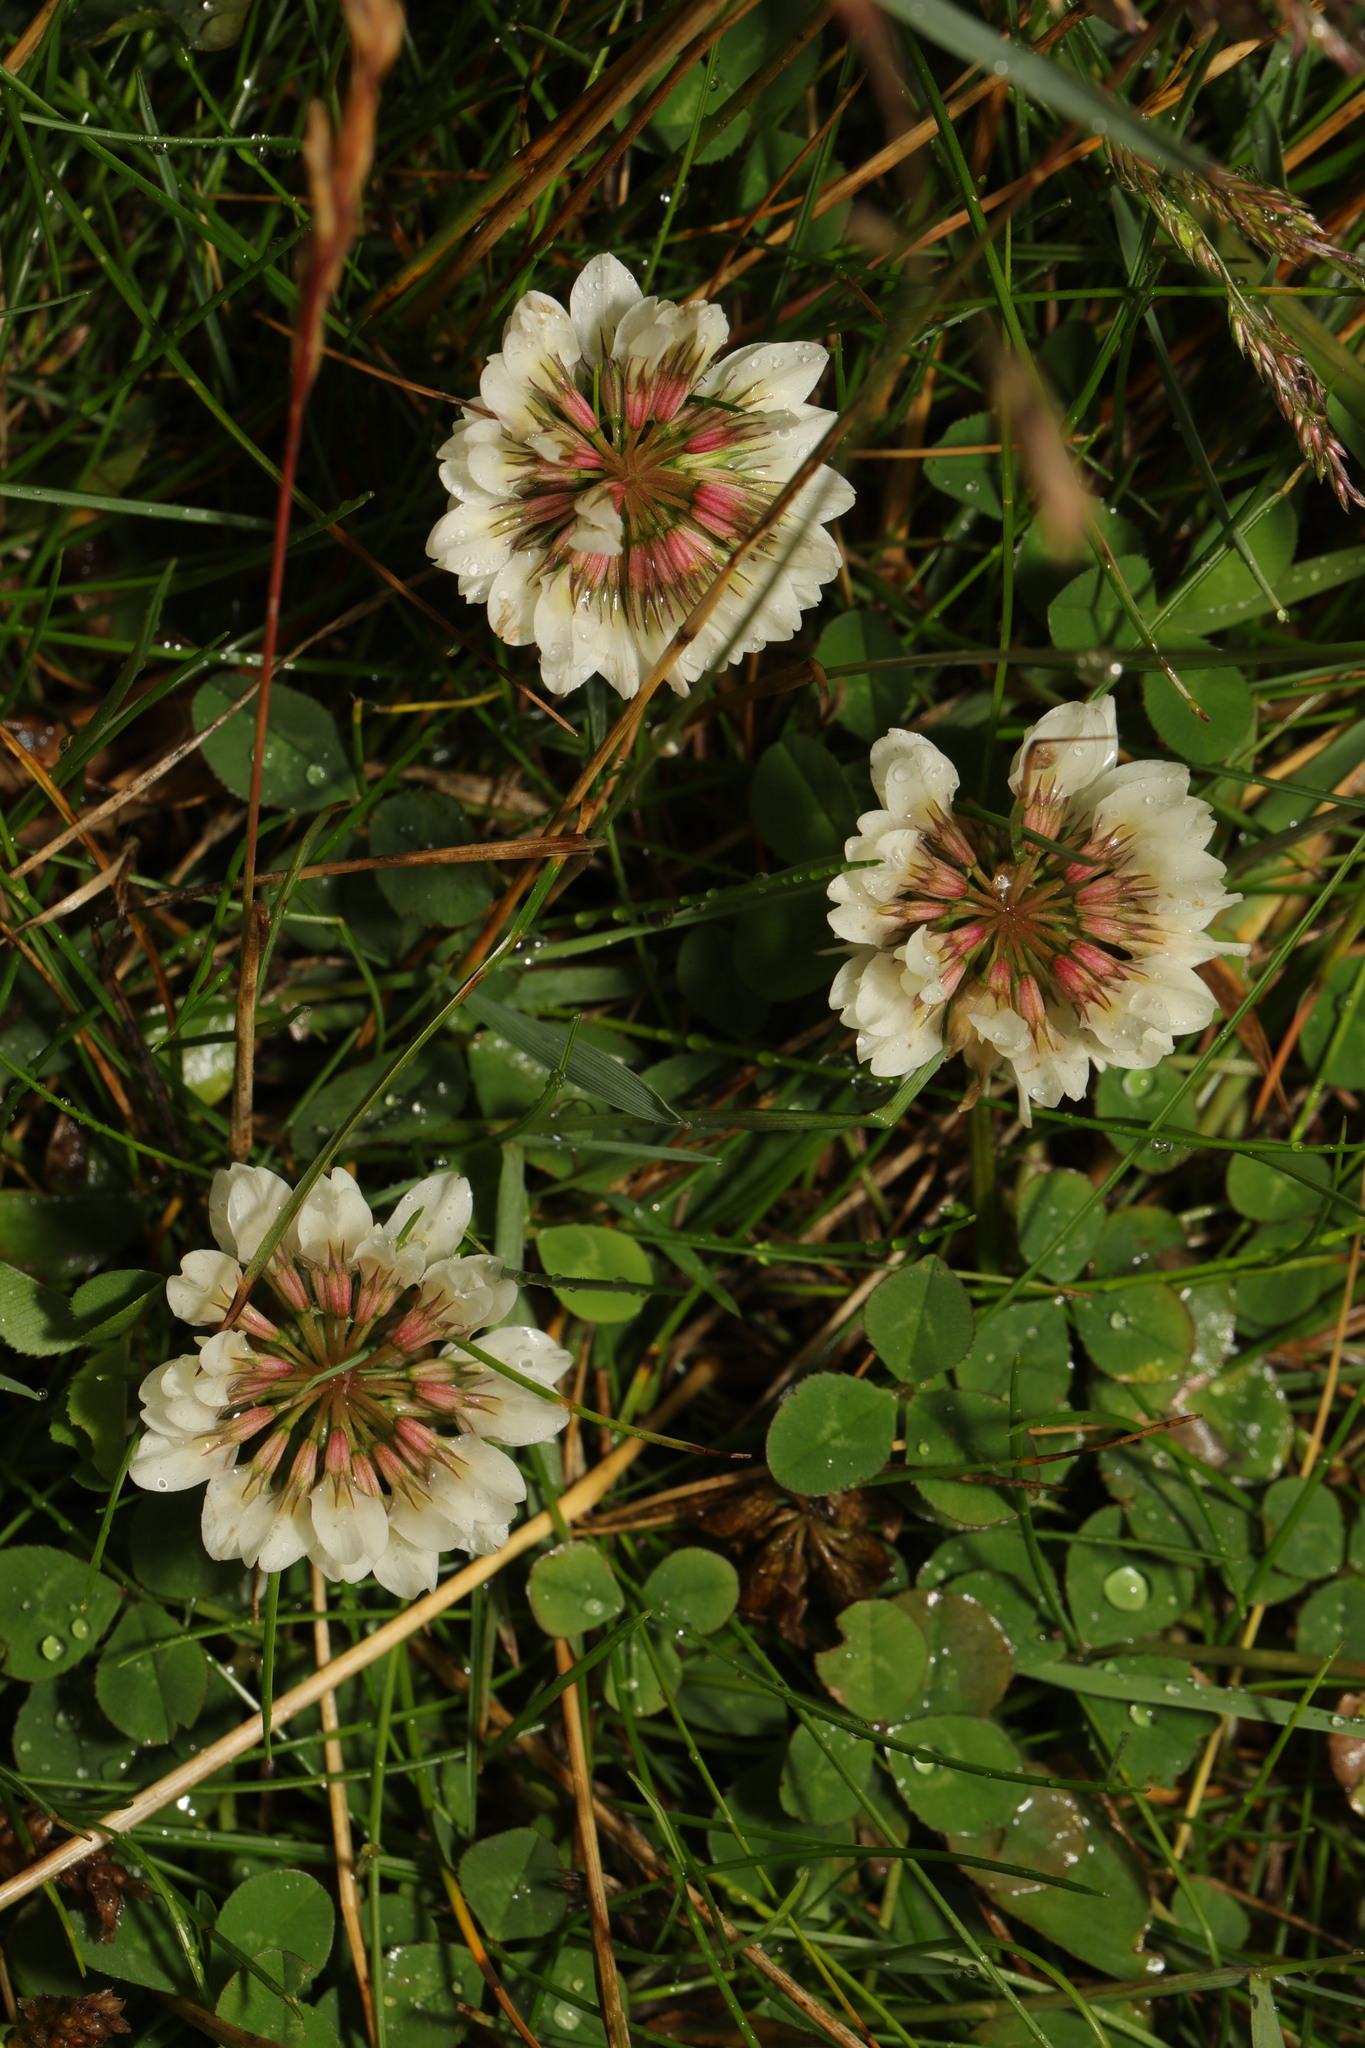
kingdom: Plantae
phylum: Tracheophyta
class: Magnoliopsida
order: Fabales
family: Fabaceae
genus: Trifolium
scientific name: Trifolium repens
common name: White clover
